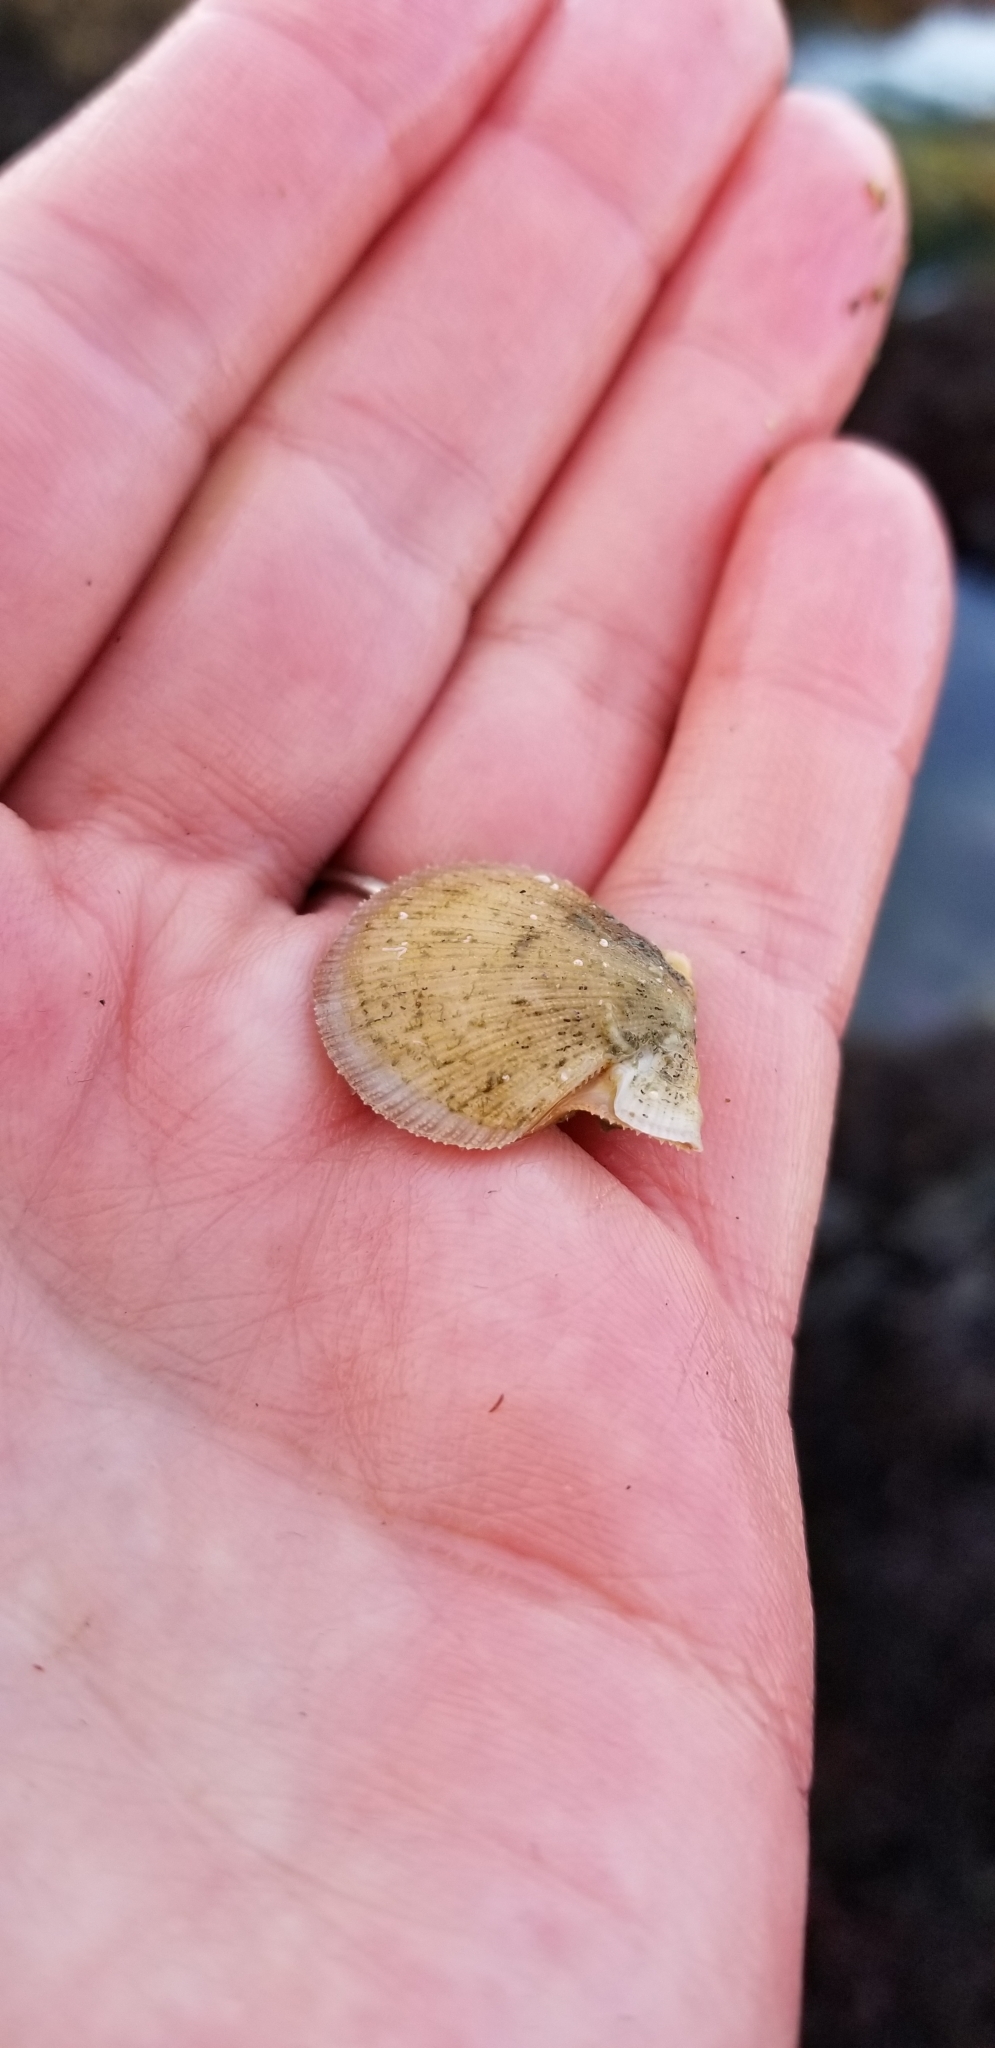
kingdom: Animalia
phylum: Mollusca
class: Bivalvia
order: Pectinida
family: Pectinidae
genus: Crassadoma
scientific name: Crassadoma gigantea
